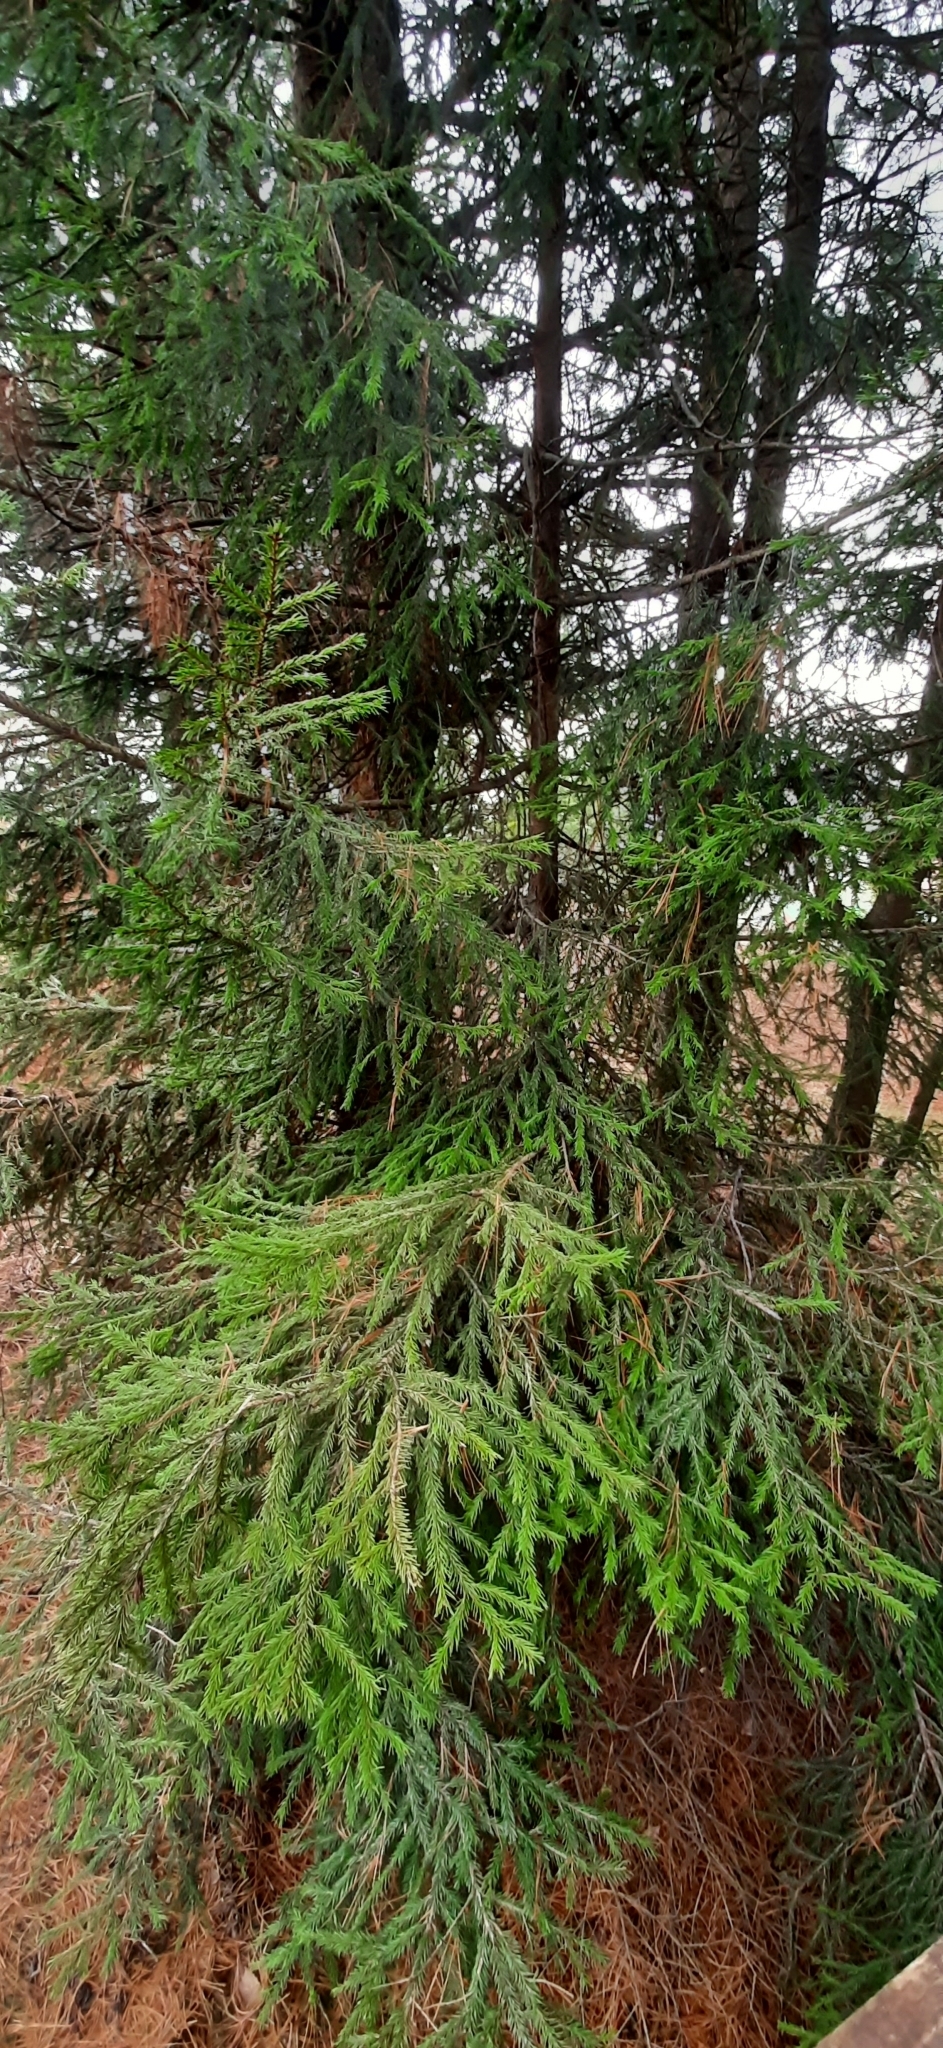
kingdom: Plantae
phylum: Tracheophyta
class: Pinopsida
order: Pinales
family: Pinaceae
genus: Picea
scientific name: Picea obovata
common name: Siberian spruce
